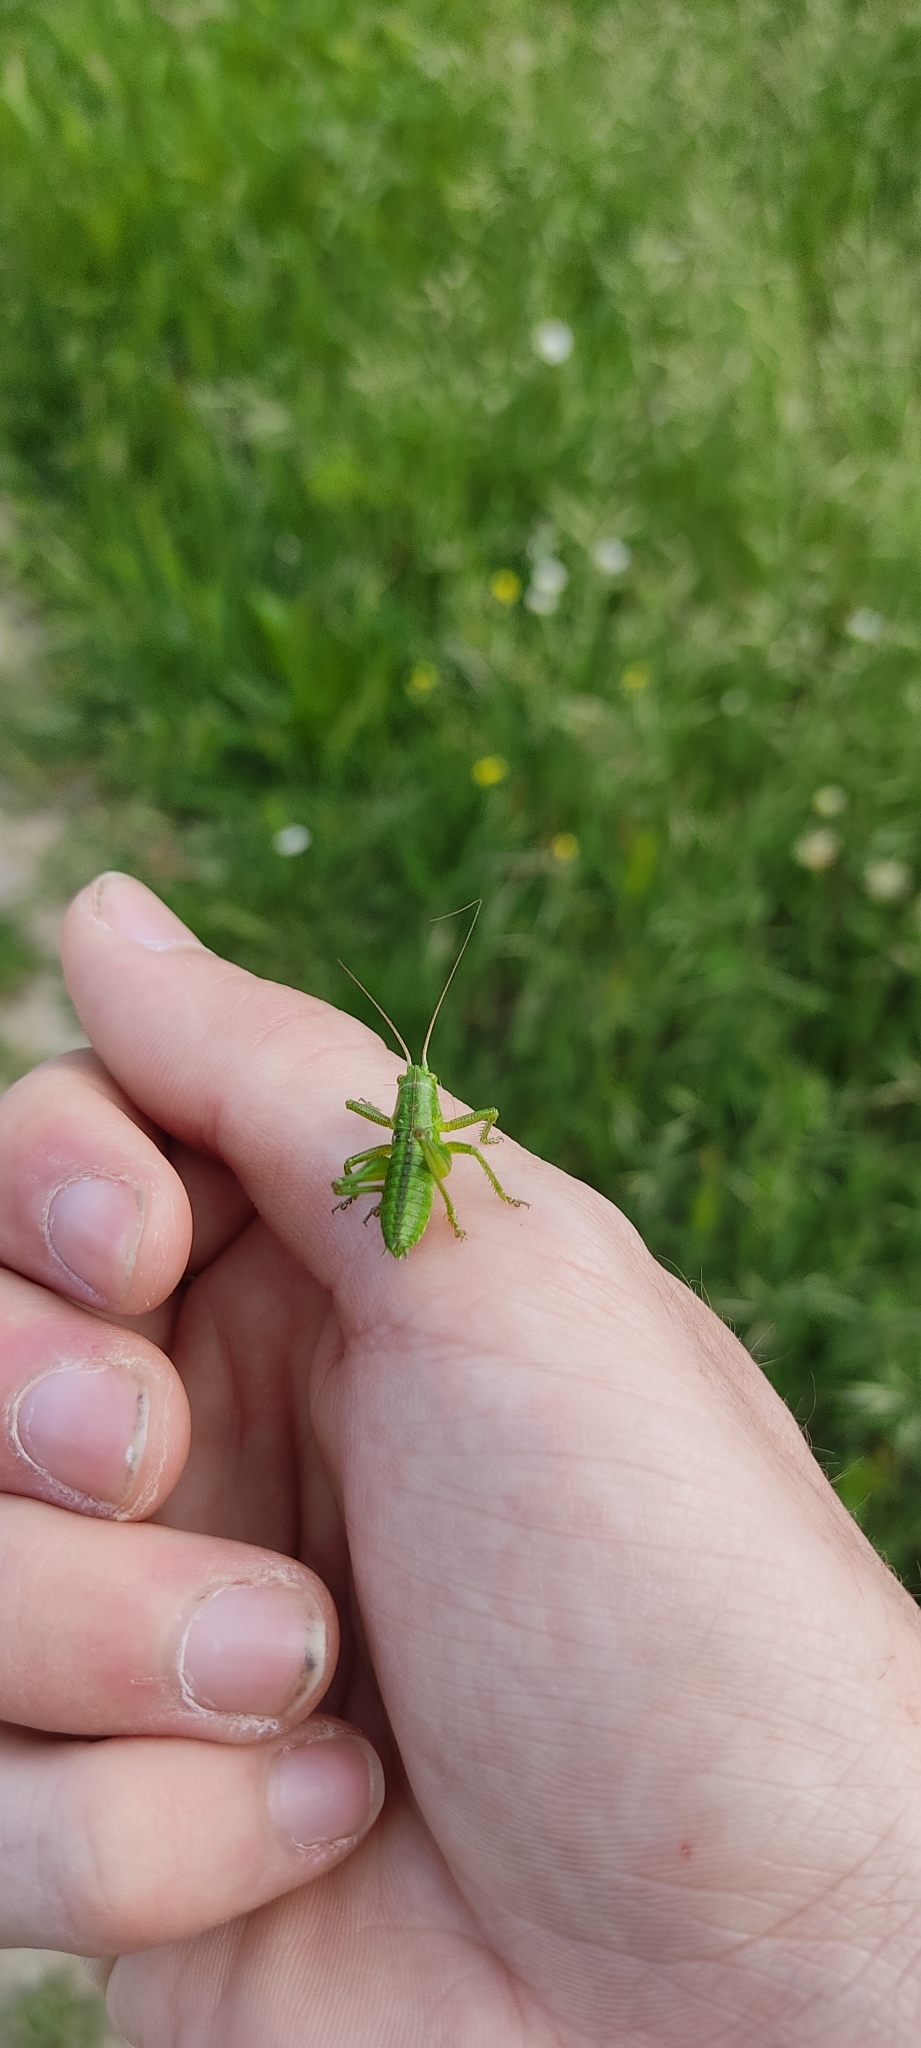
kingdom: Animalia
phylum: Arthropoda
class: Insecta
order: Orthoptera
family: Tettigoniidae
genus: Tettigonia
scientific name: Tettigonia viridissima
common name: Great green bush-cricket
